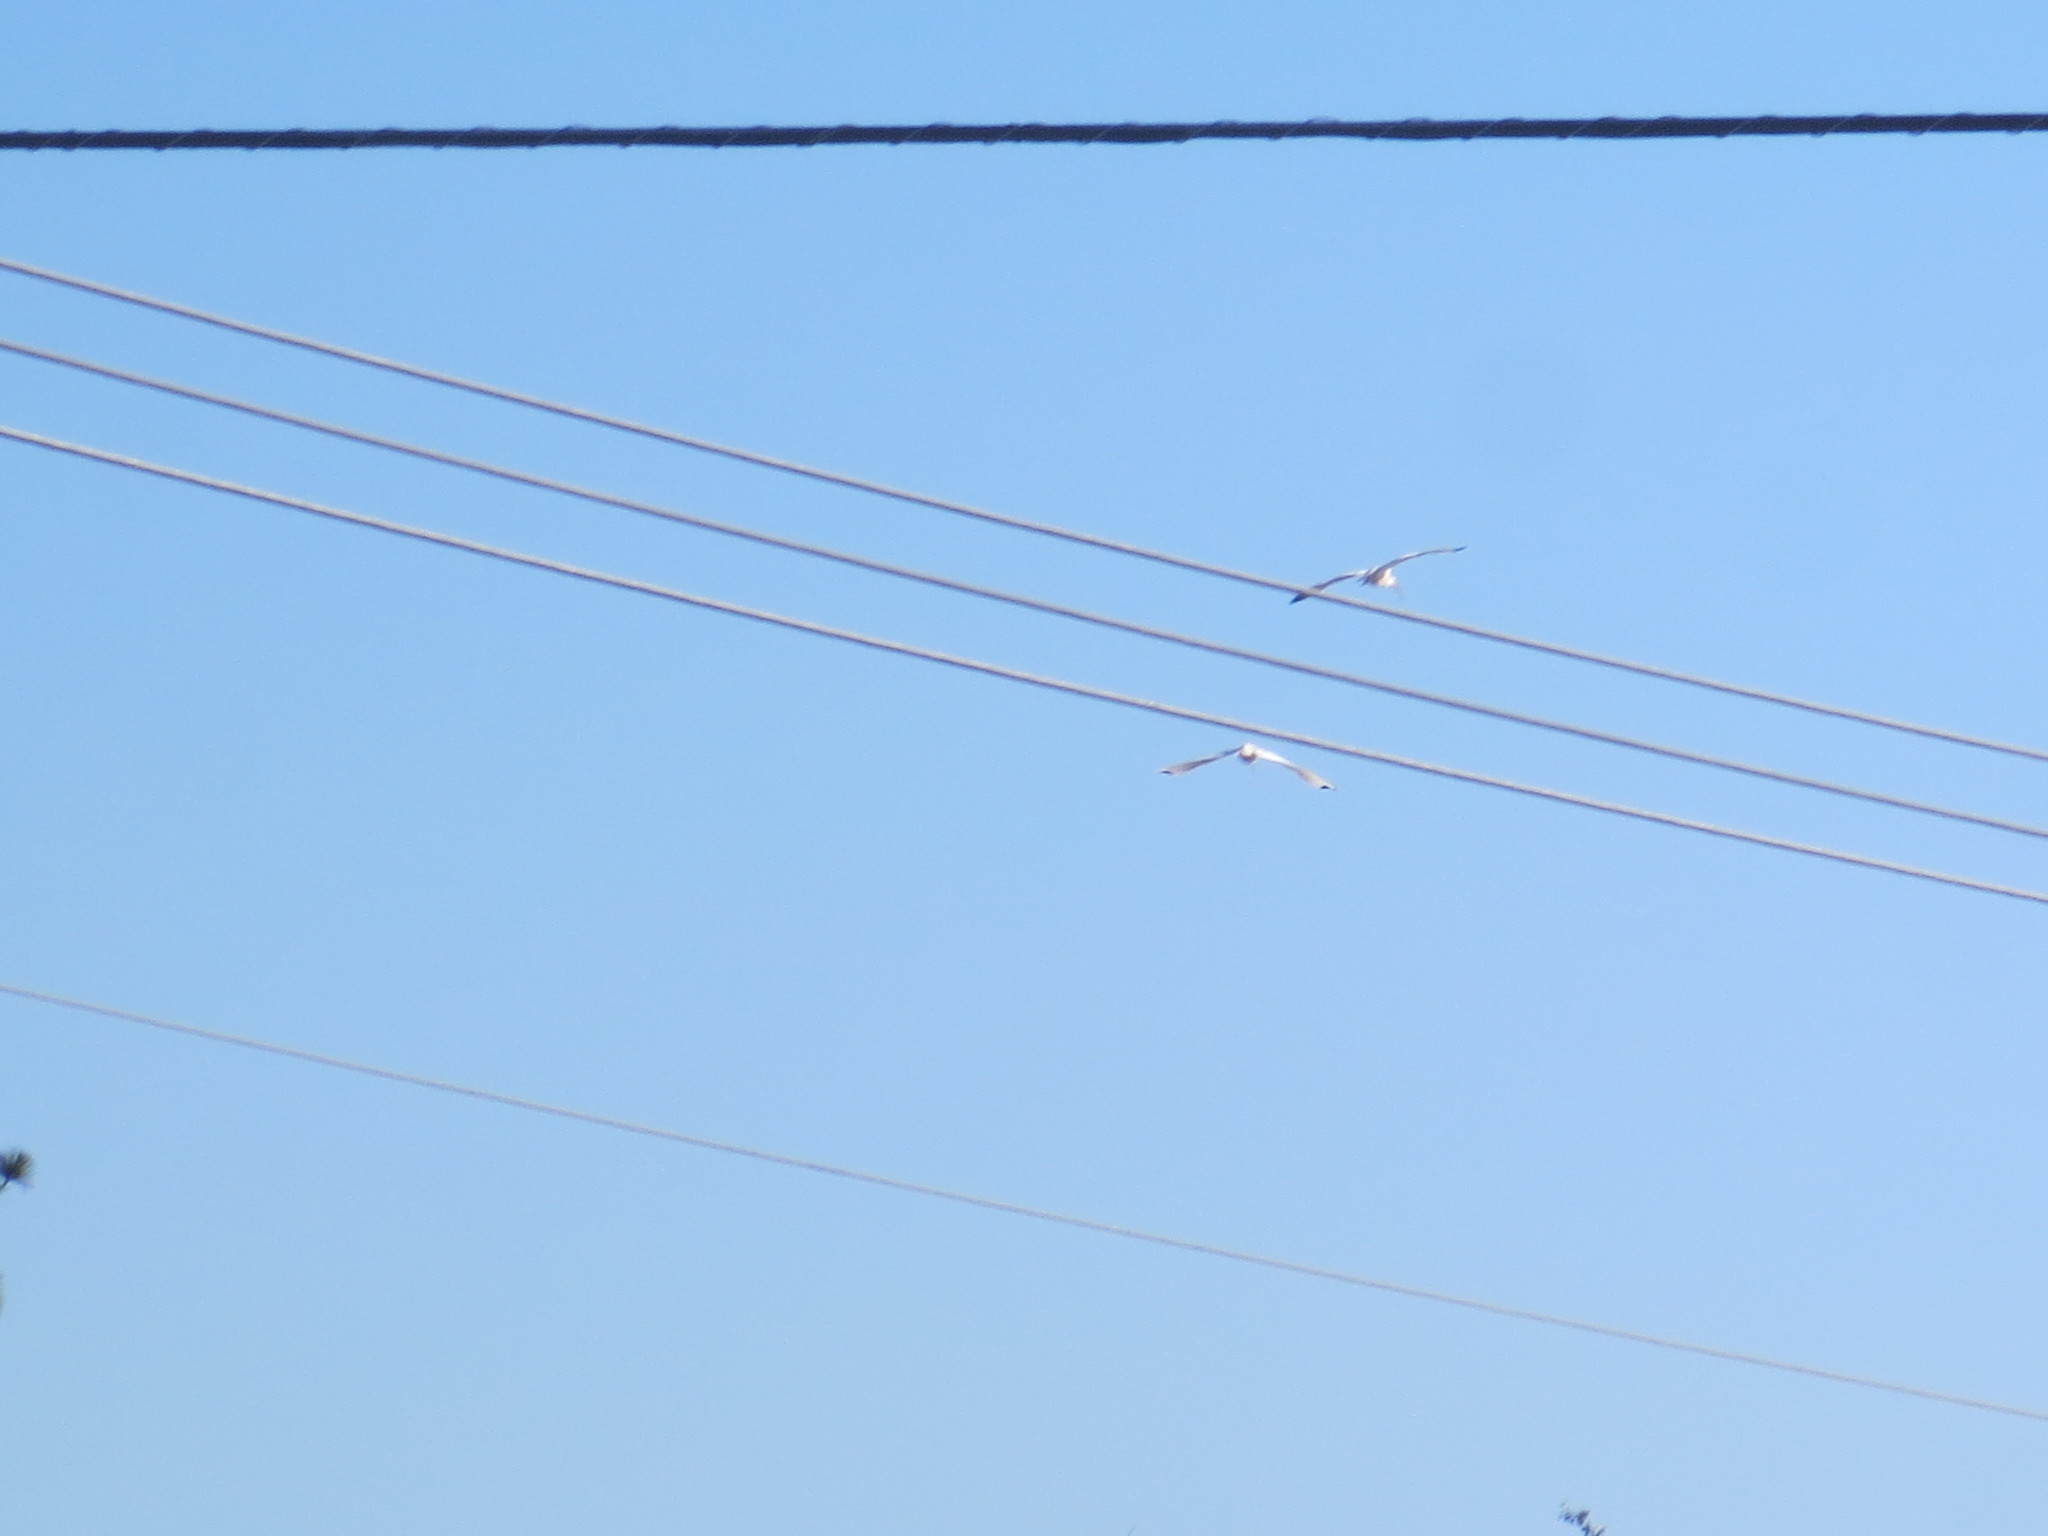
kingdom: Animalia
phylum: Chordata
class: Aves
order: Pelecaniformes
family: Threskiornithidae
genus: Eudocimus
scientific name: Eudocimus albus
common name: White ibis
